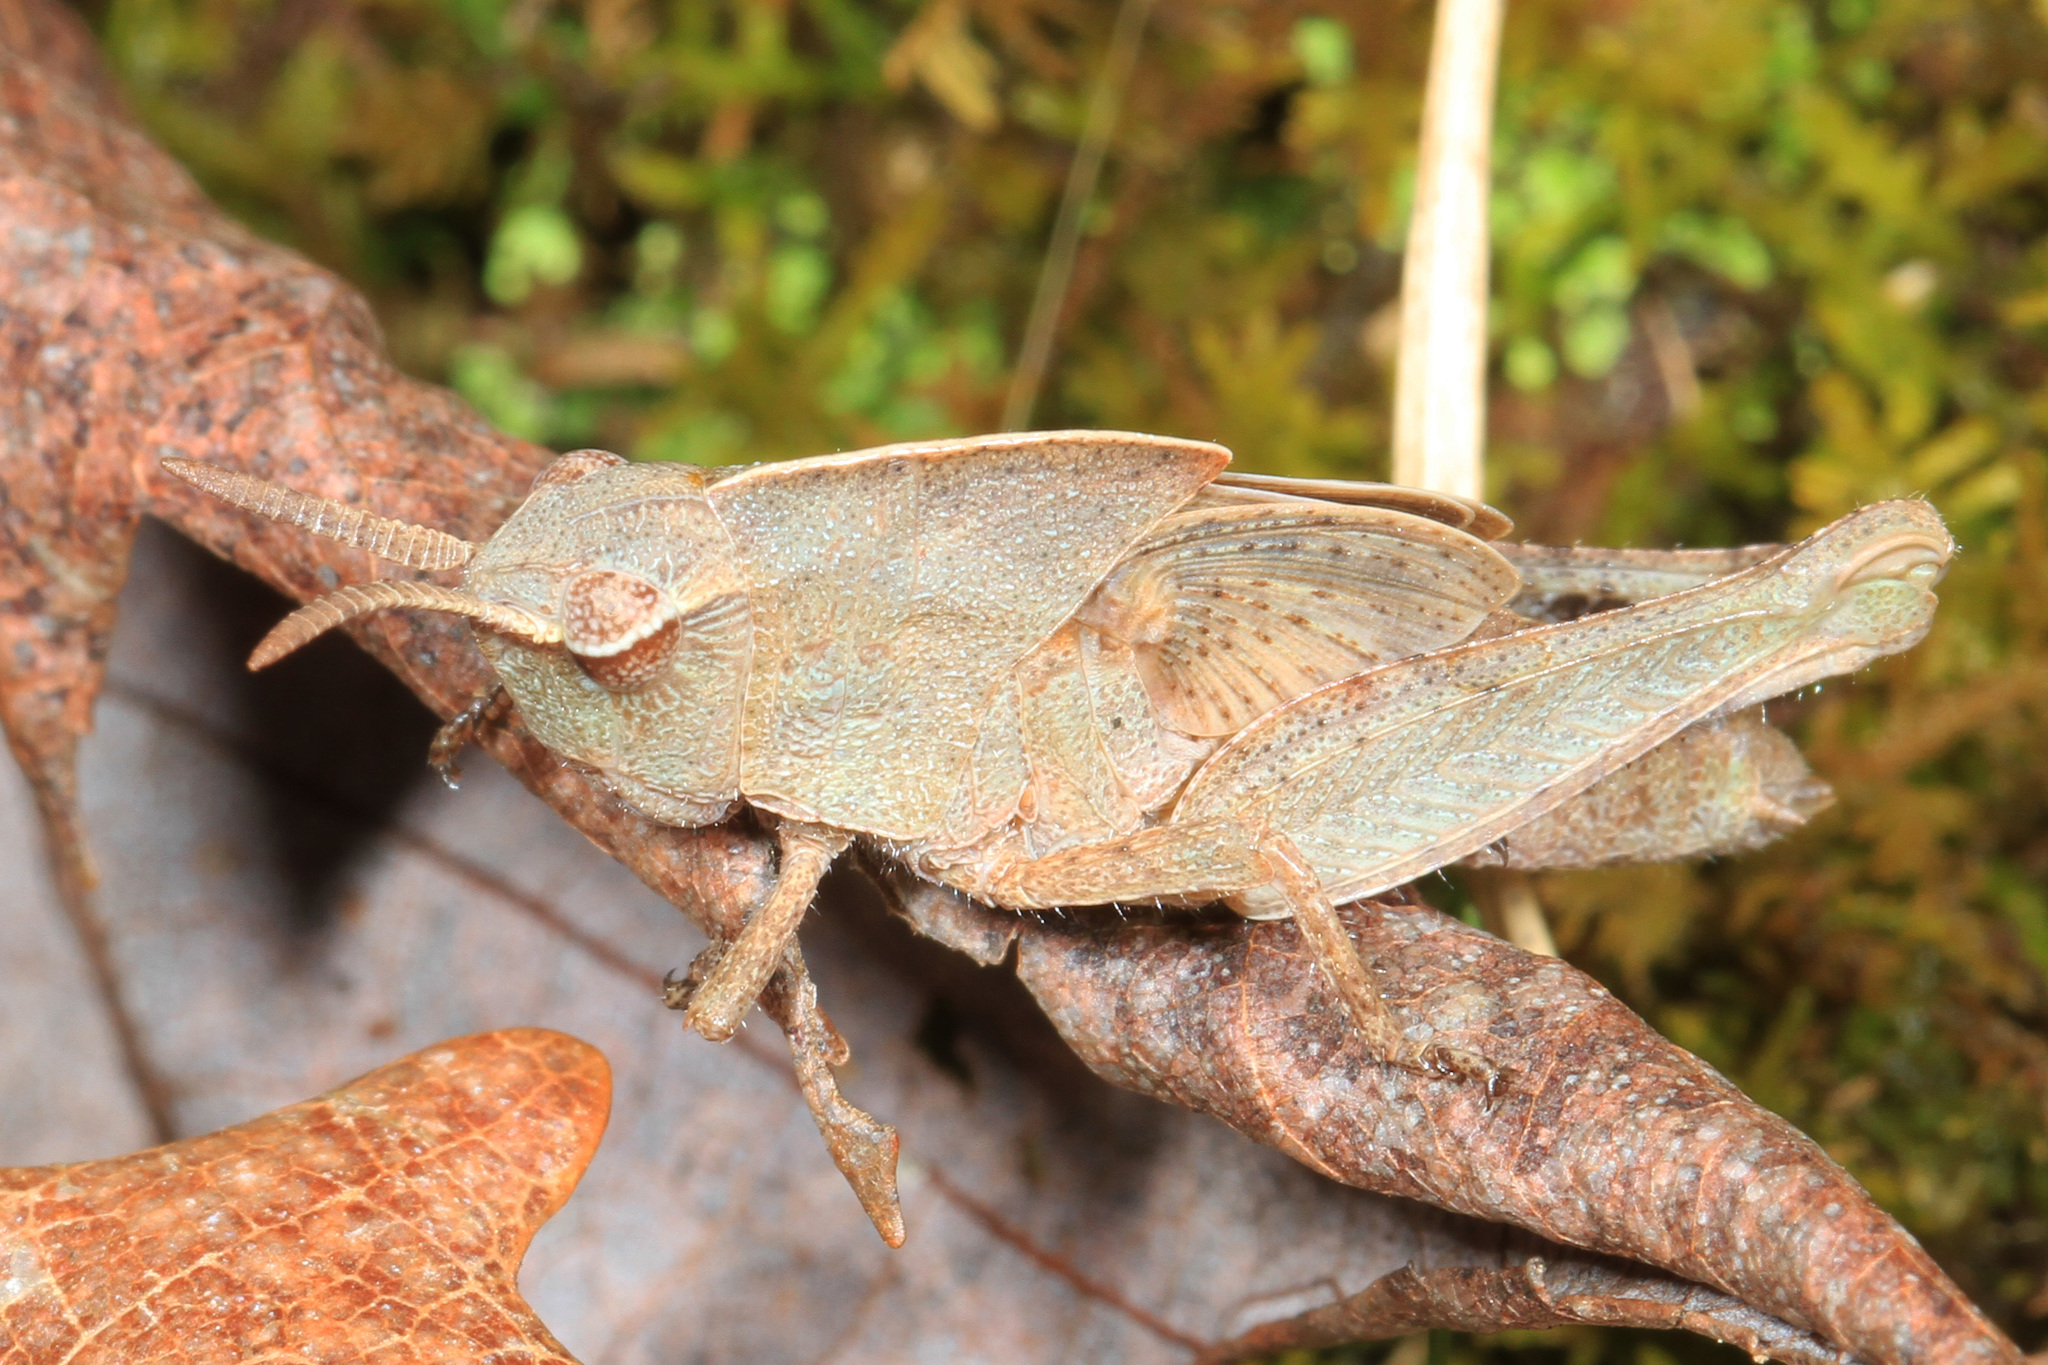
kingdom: Animalia
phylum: Arthropoda
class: Insecta
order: Orthoptera
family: Acrididae
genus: Chortophaga
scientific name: Chortophaga viridifasciata
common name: Green-striped grasshopper
